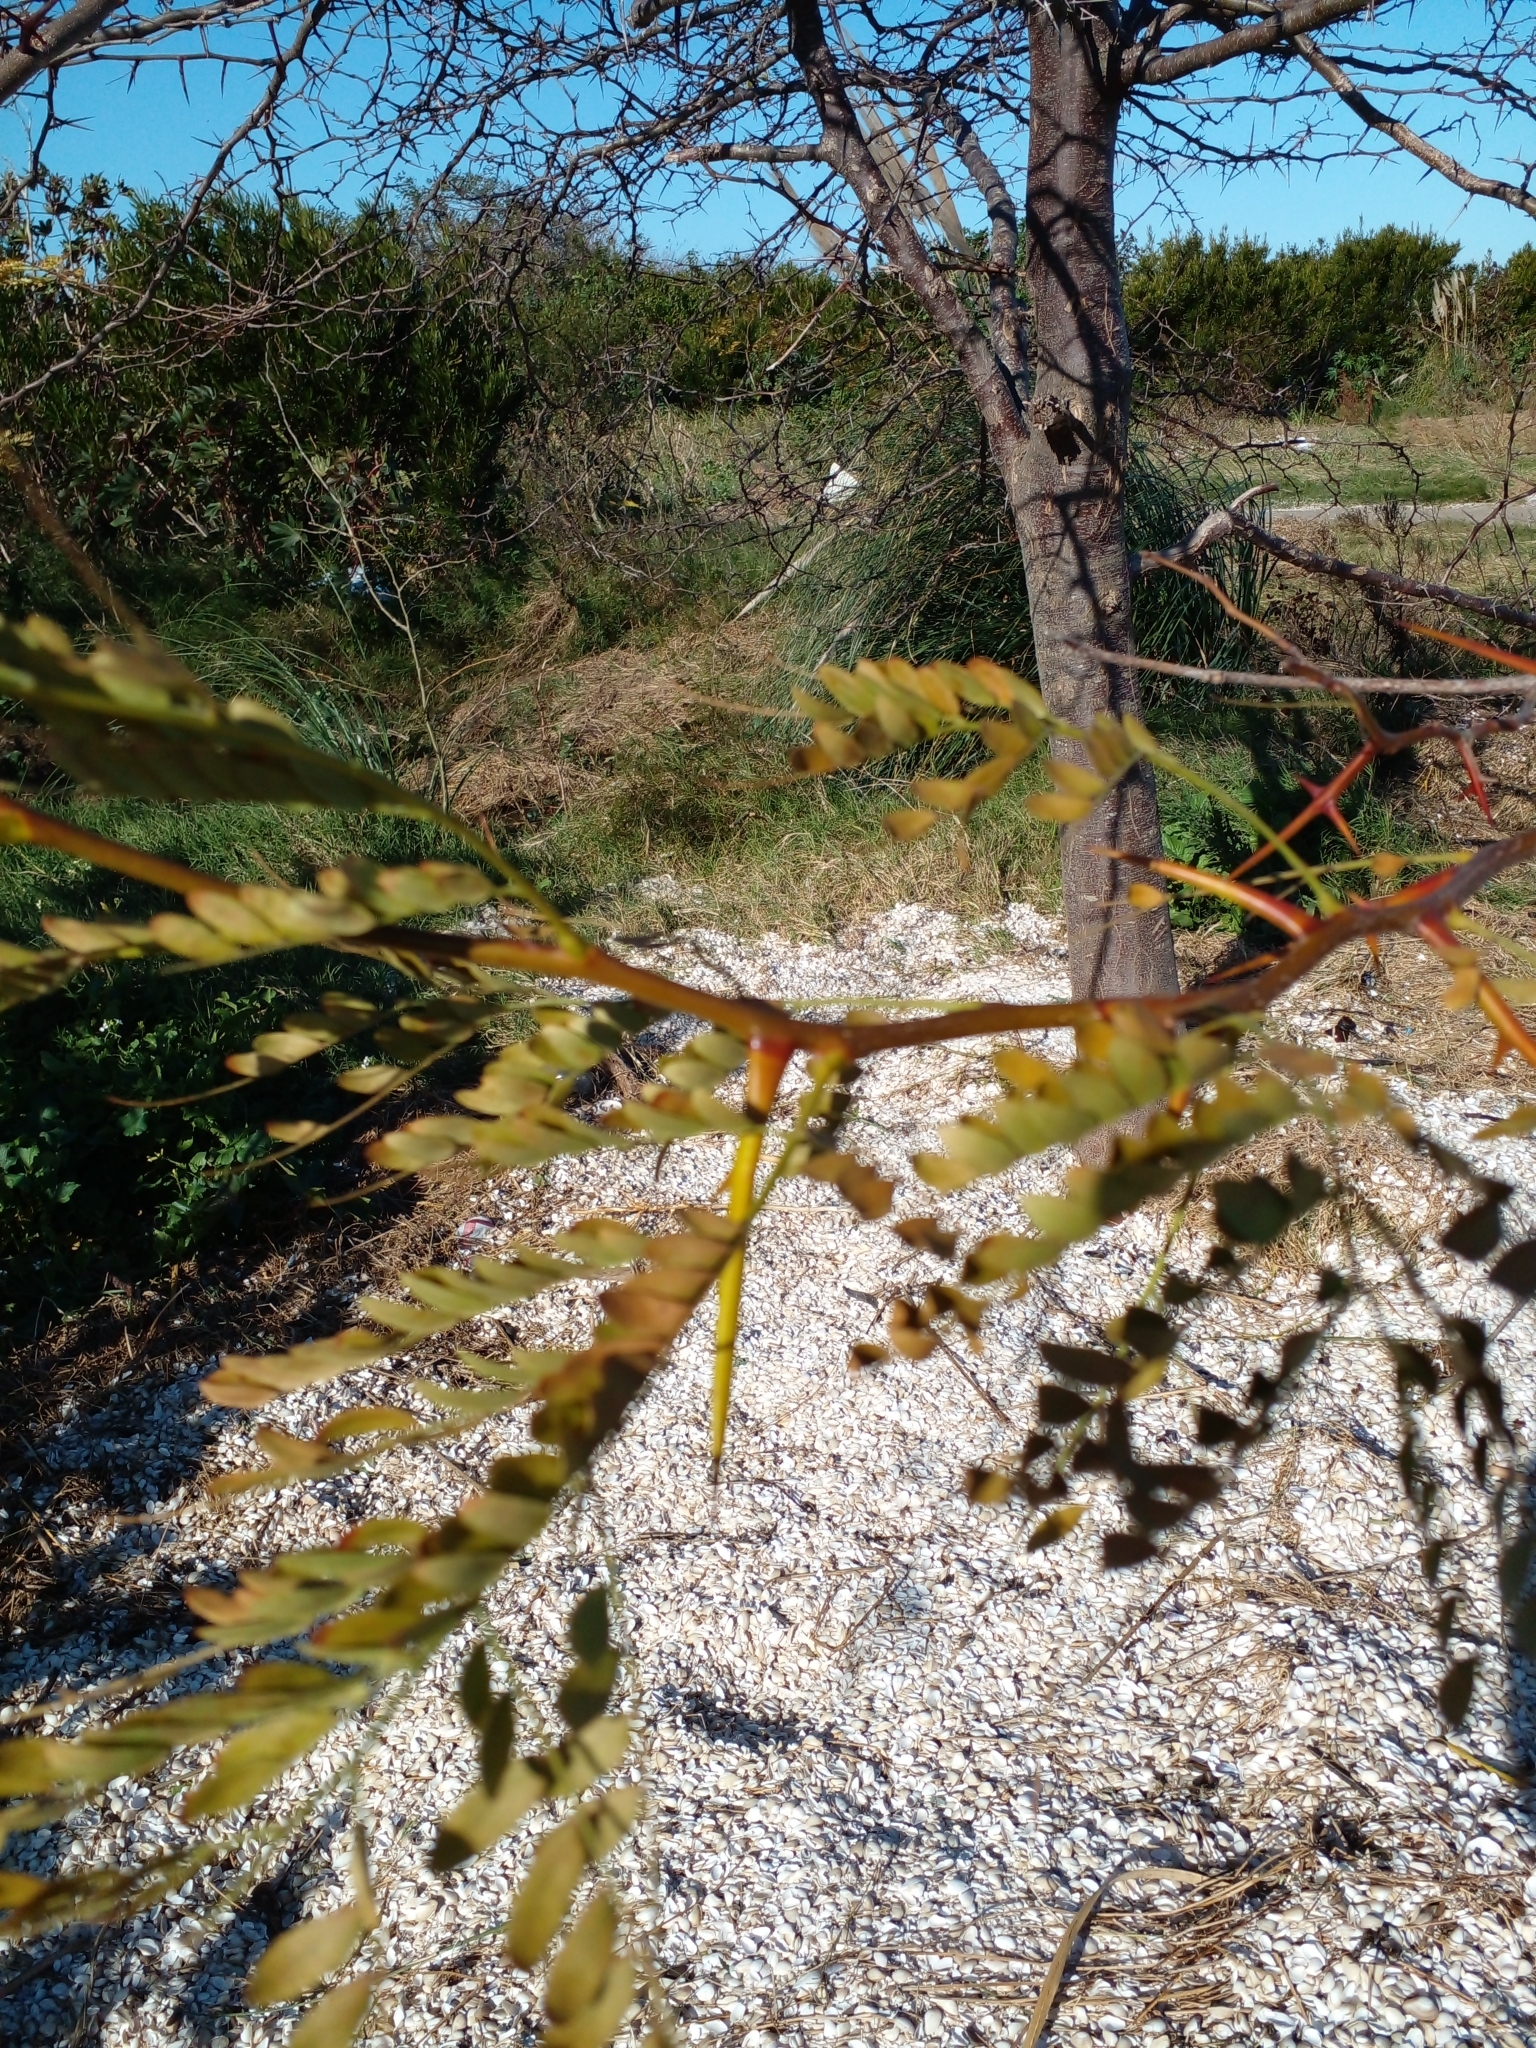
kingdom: Plantae
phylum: Tracheophyta
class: Magnoliopsida
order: Fabales
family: Fabaceae
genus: Gleditsia
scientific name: Gleditsia triacanthos
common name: Common honeylocust
